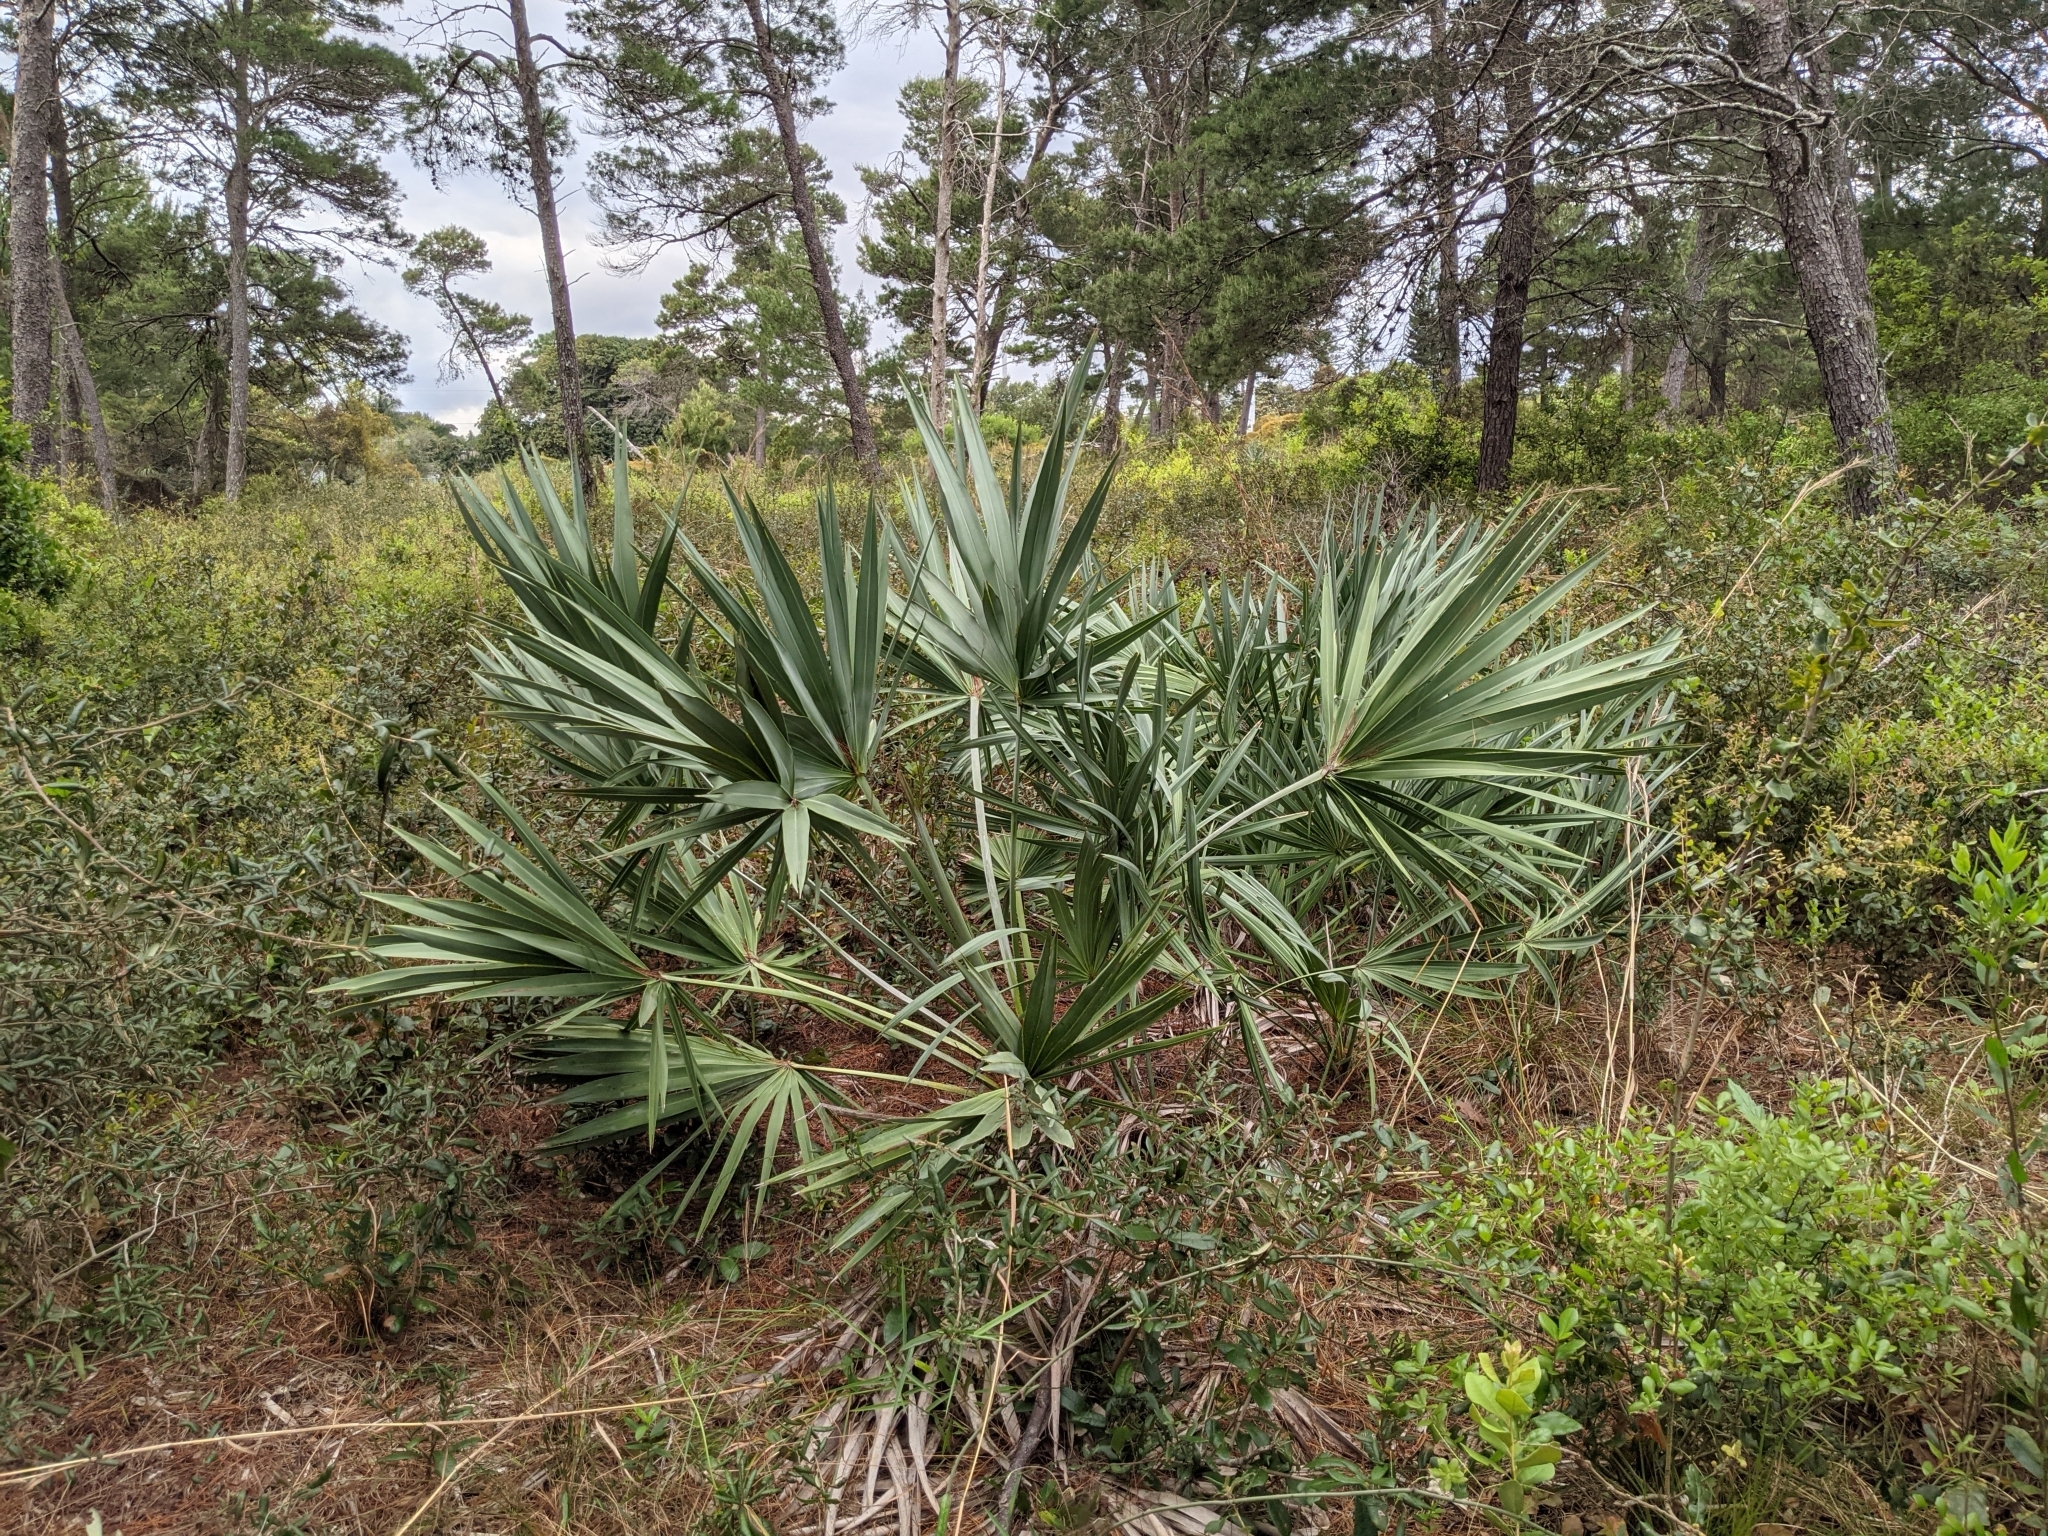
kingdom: Plantae
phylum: Tracheophyta
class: Liliopsida
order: Arecales
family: Arecaceae
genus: Serenoa
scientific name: Serenoa repens
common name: Saw-palmetto
